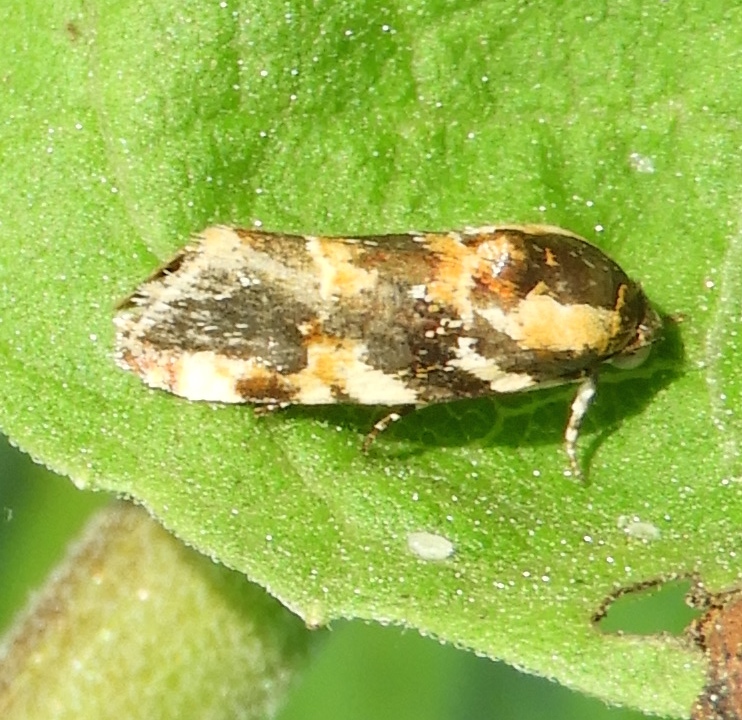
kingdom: Animalia
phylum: Arthropoda
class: Insecta
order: Lepidoptera
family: Noctuidae
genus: Spragueia
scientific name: Spragueia
